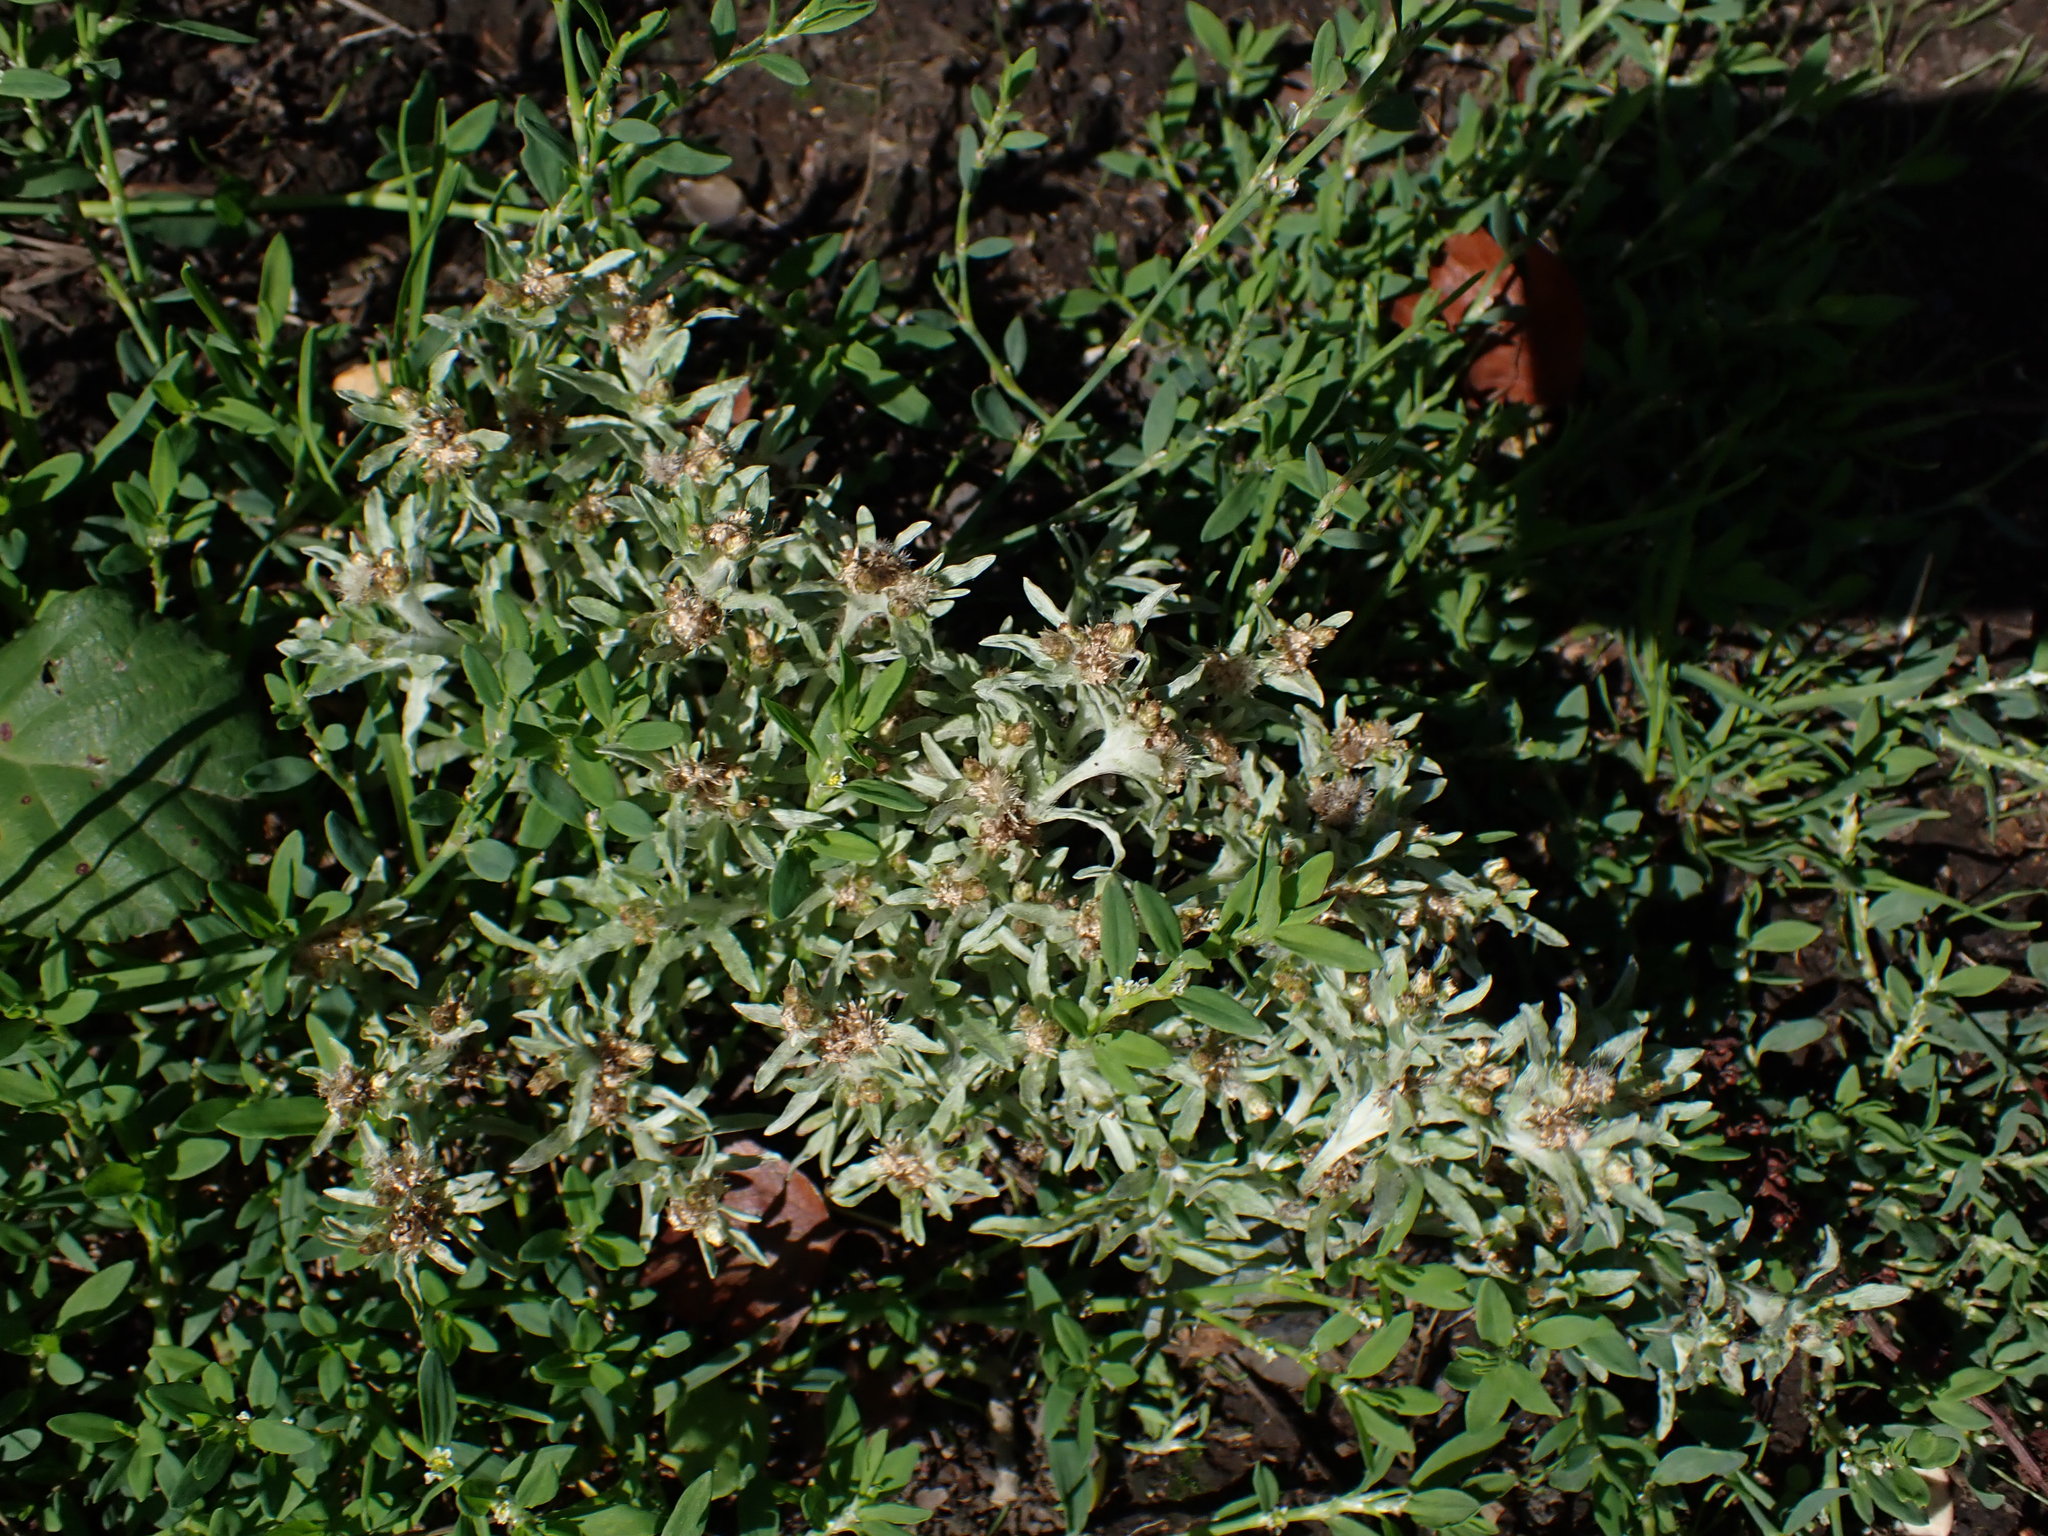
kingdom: Plantae
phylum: Tracheophyta
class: Magnoliopsida
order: Asterales
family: Asteraceae
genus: Gnaphalium
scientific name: Gnaphalium uliginosum
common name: Marsh cudweed
